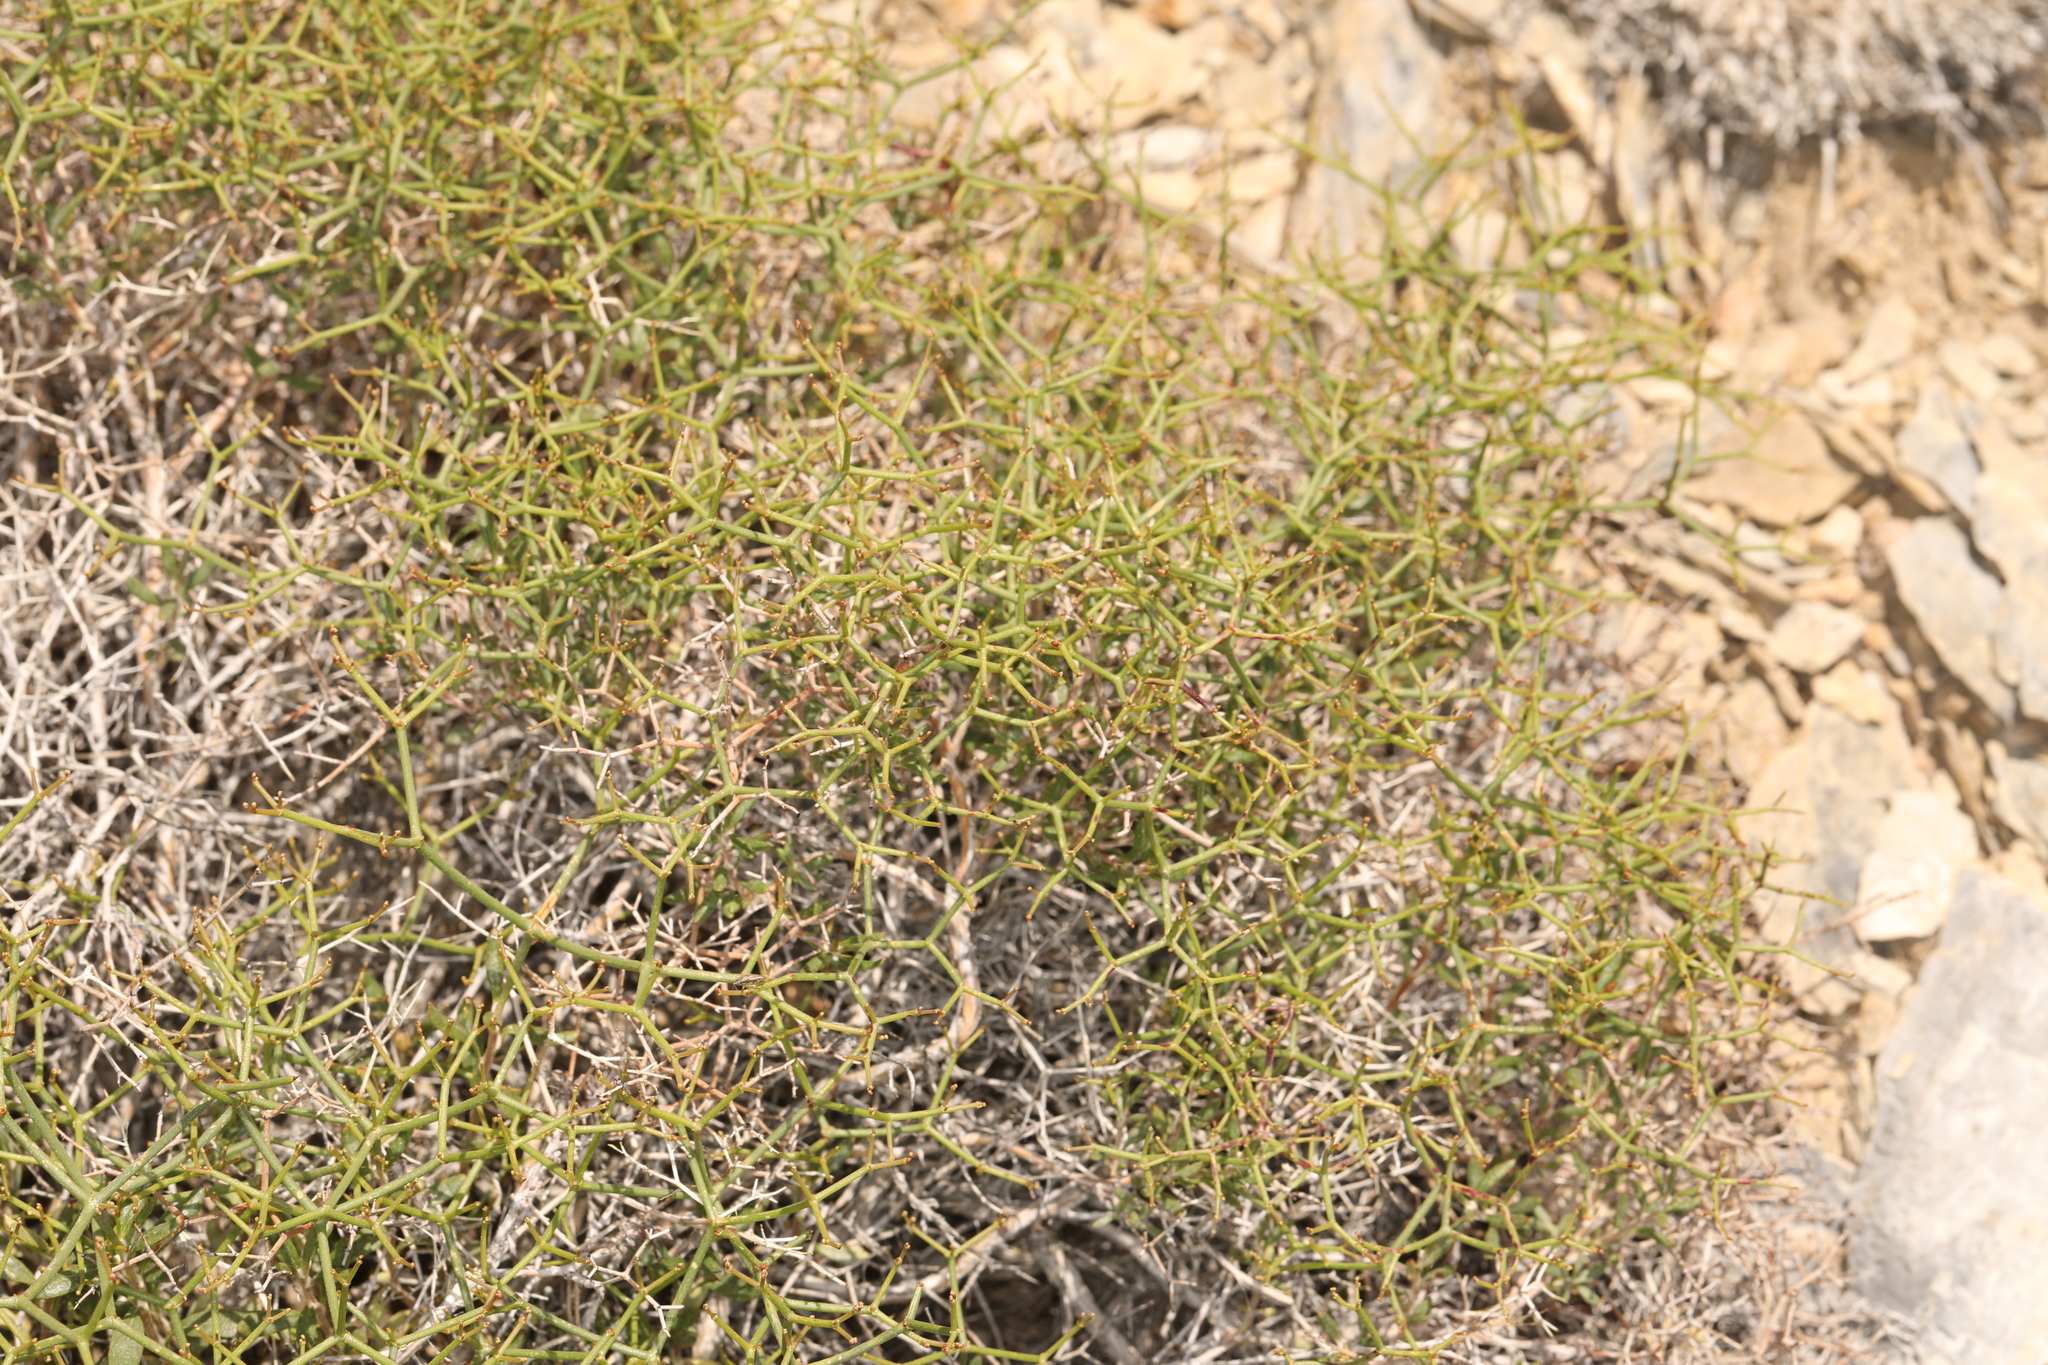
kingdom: Plantae
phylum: Tracheophyta
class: Magnoliopsida
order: Caryophyllales
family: Polygonaceae
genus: Eriogonum
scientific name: Eriogonum heermannii
